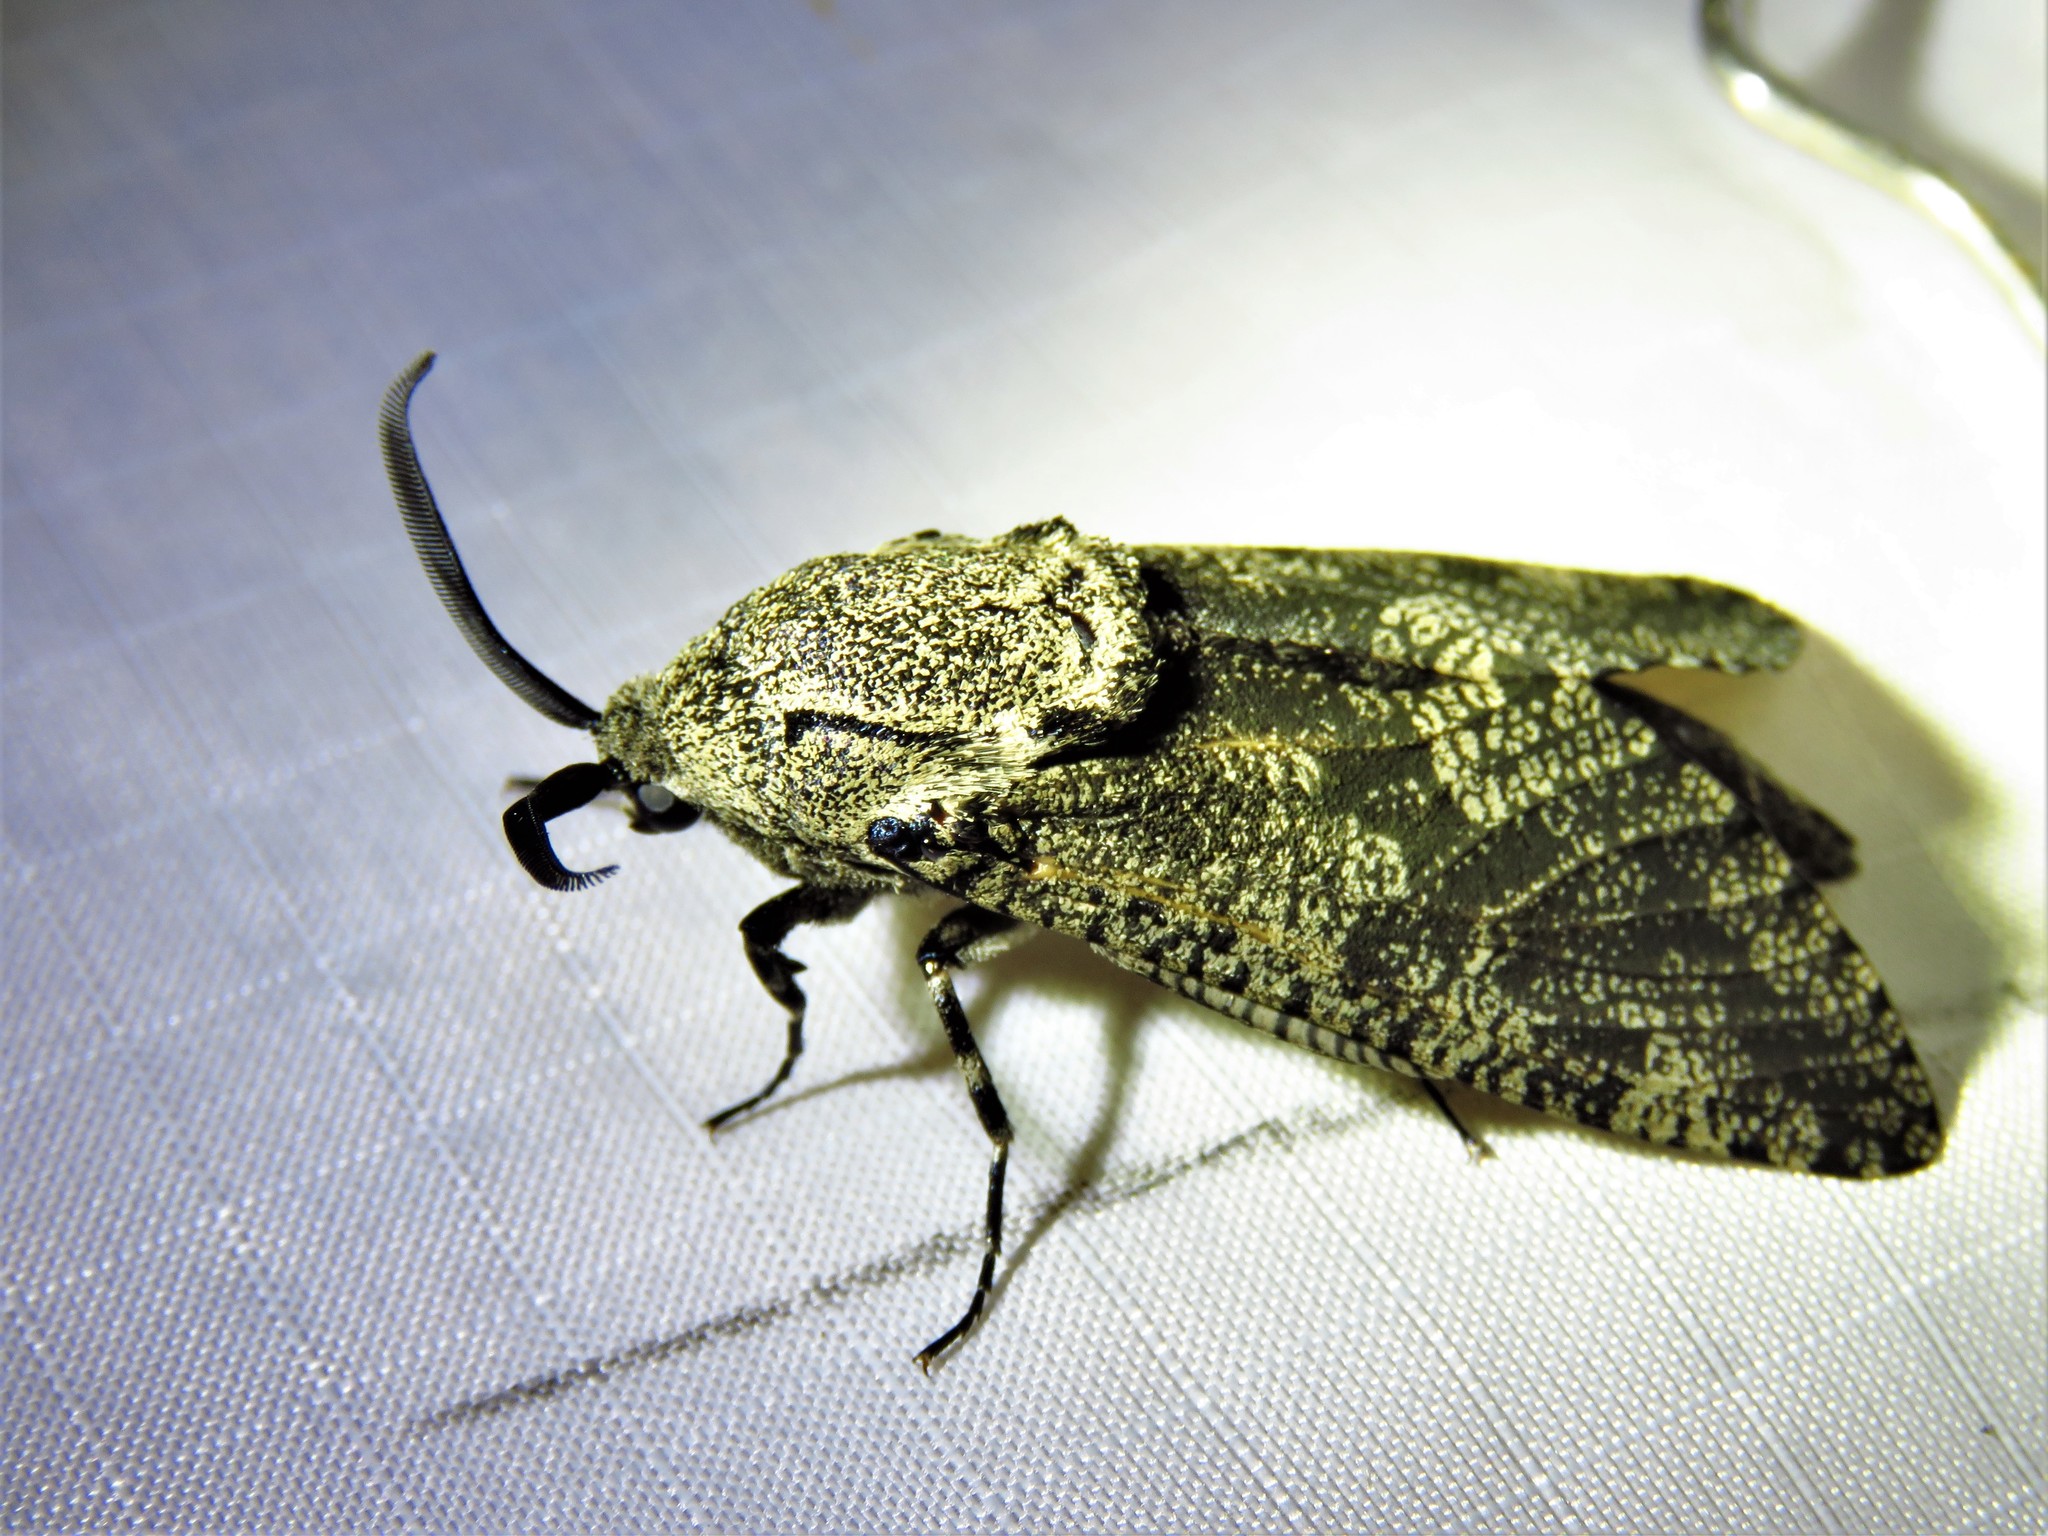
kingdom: Animalia
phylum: Arthropoda
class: Insecta
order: Lepidoptera
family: Cossidae
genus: Prionoxystus
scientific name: Prionoxystus robiniae
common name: Carpenterworm
